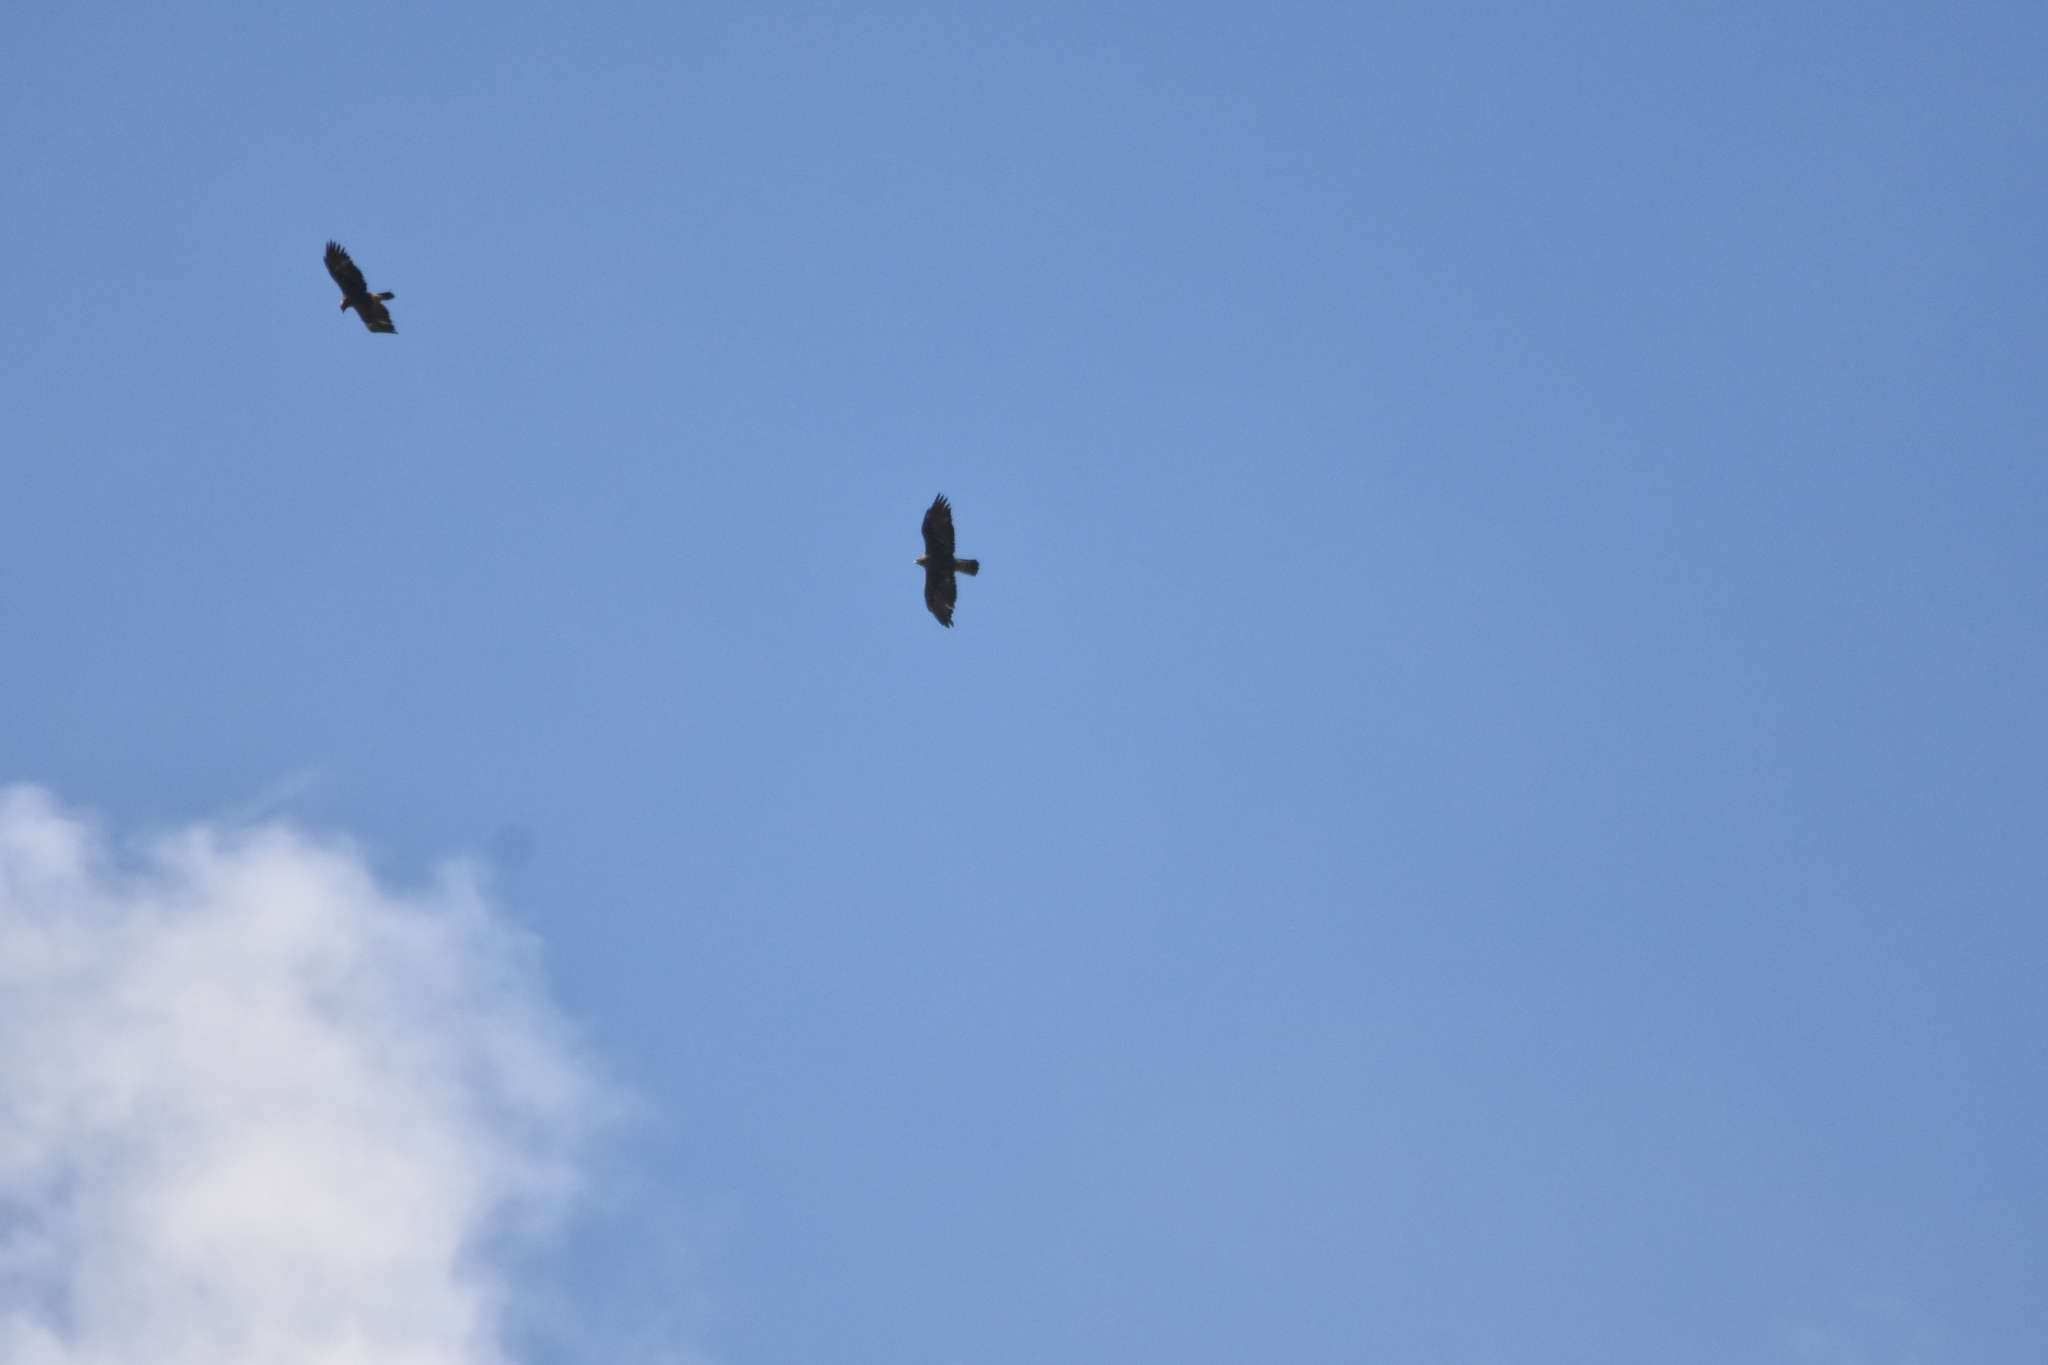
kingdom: Animalia
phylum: Chordata
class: Aves
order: Accipitriformes
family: Accipitridae
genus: Aquila
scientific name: Aquila chrysaetos
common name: Golden eagle
